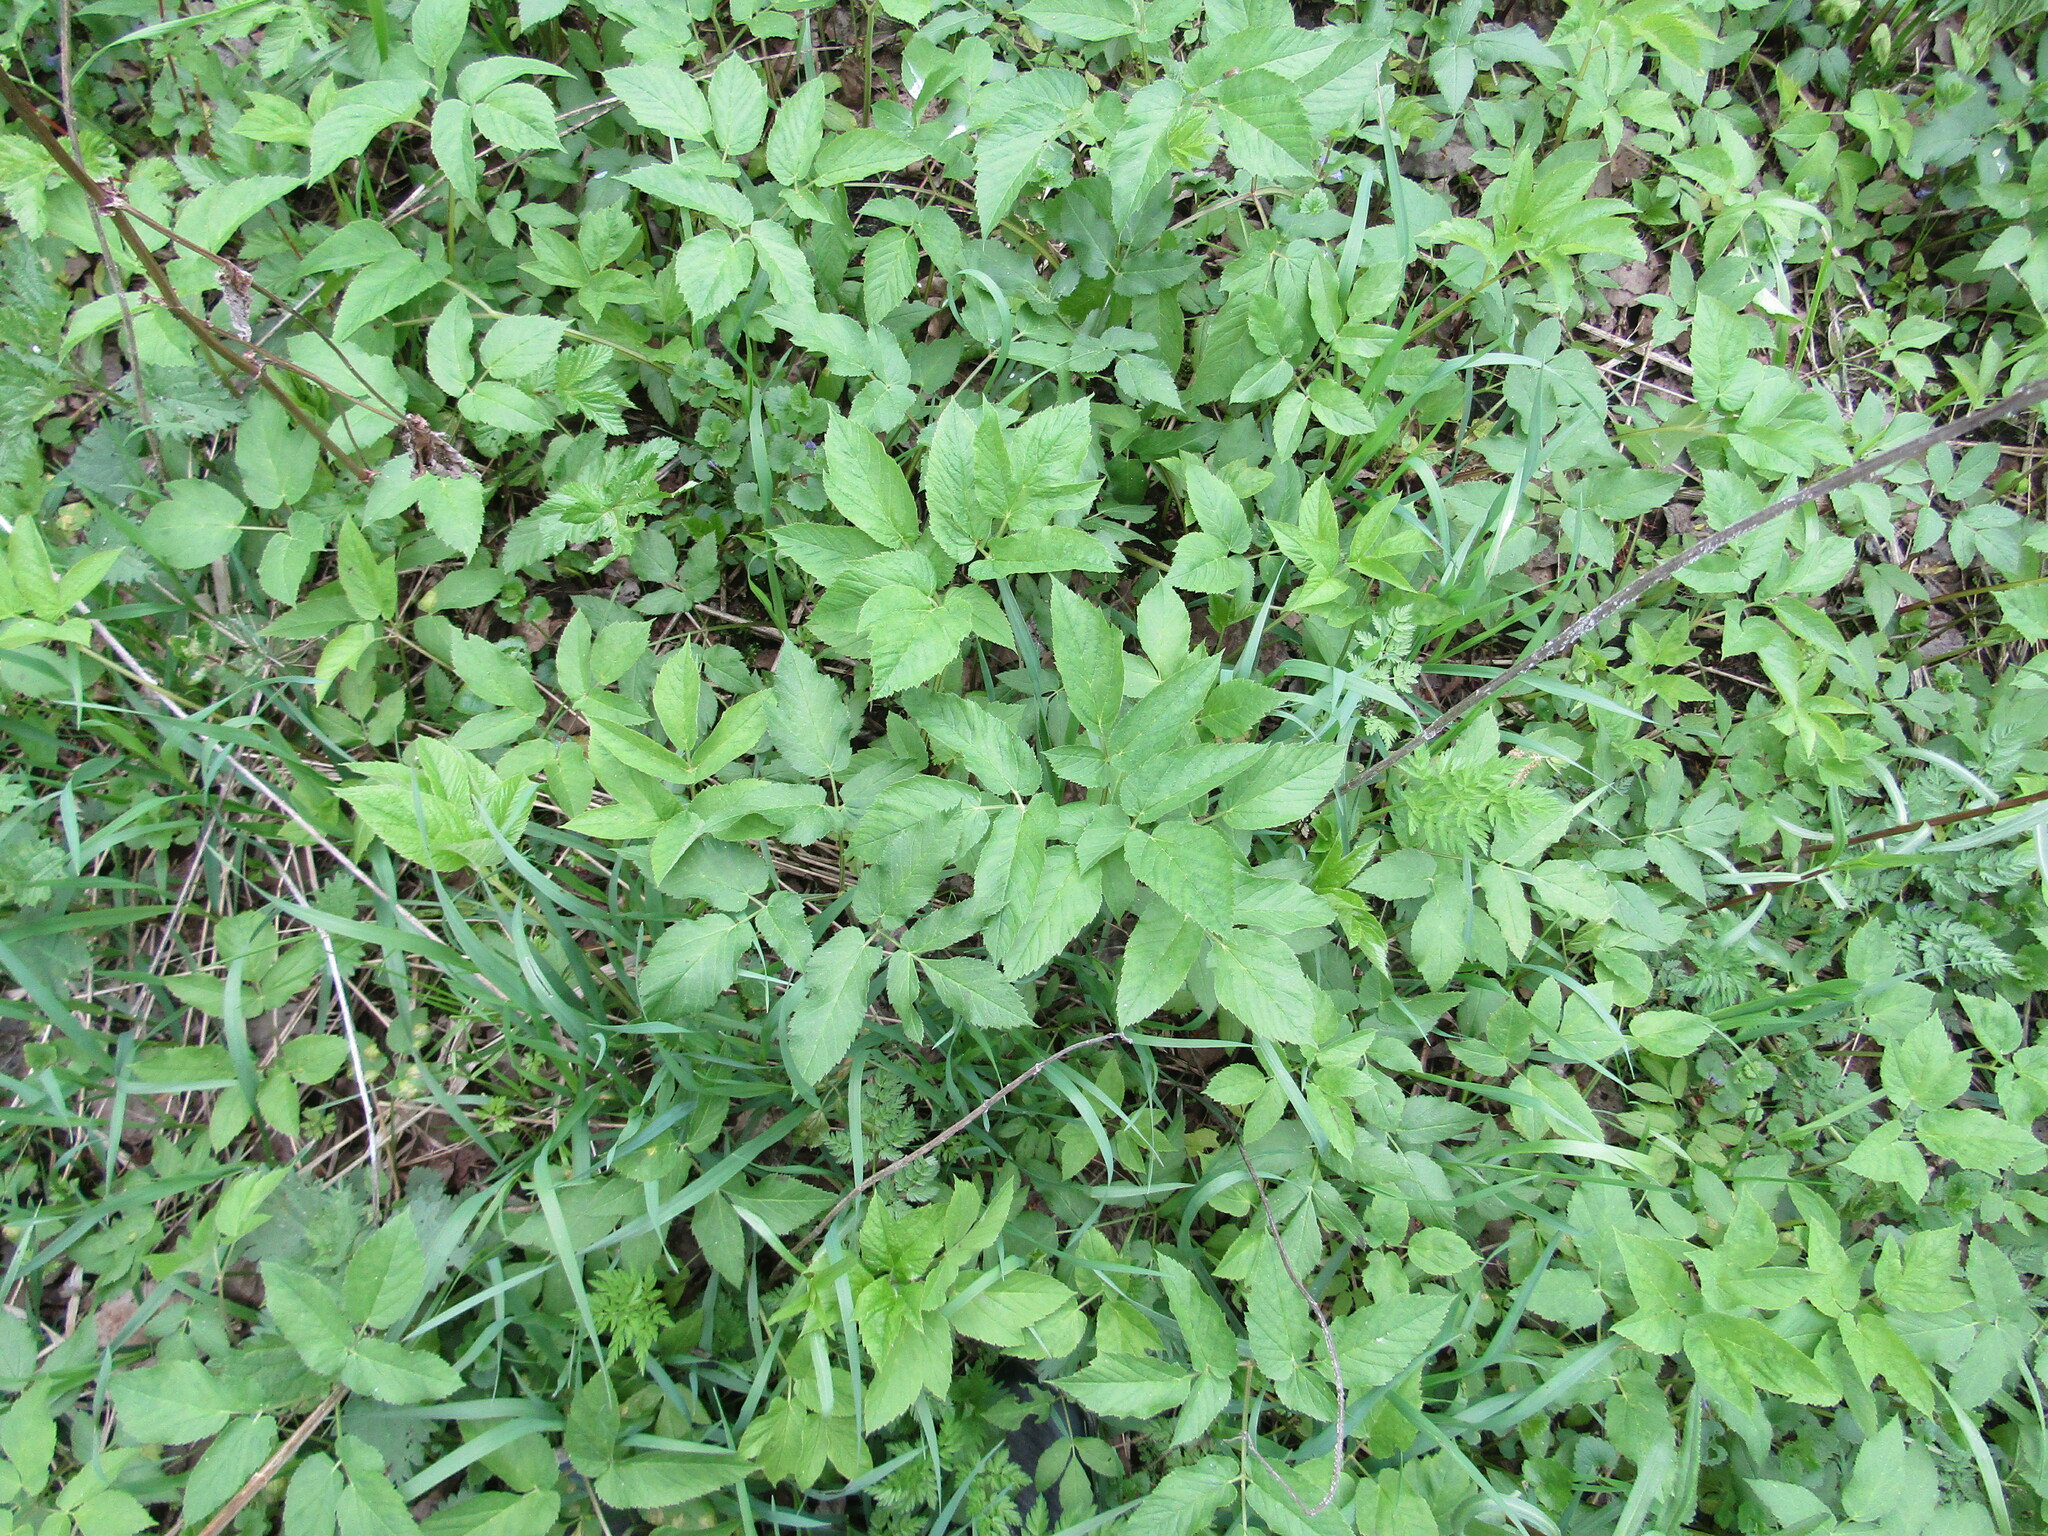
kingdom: Plantae
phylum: Tracheophyta
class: Magnoliopsida
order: Apiales
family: Apiaceae
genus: Aegopodium
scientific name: Aegopodium podagraria
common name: Ground-elder
